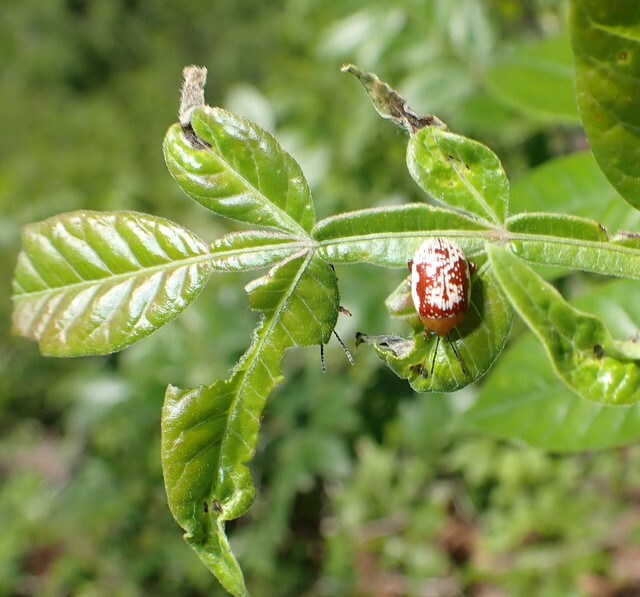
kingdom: Animalia
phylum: Arthropoda
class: Insecta
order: Coleoptera
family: Chrysomelidae
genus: Blepharida
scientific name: Blepharida rhois
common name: Sumac flea beetle
